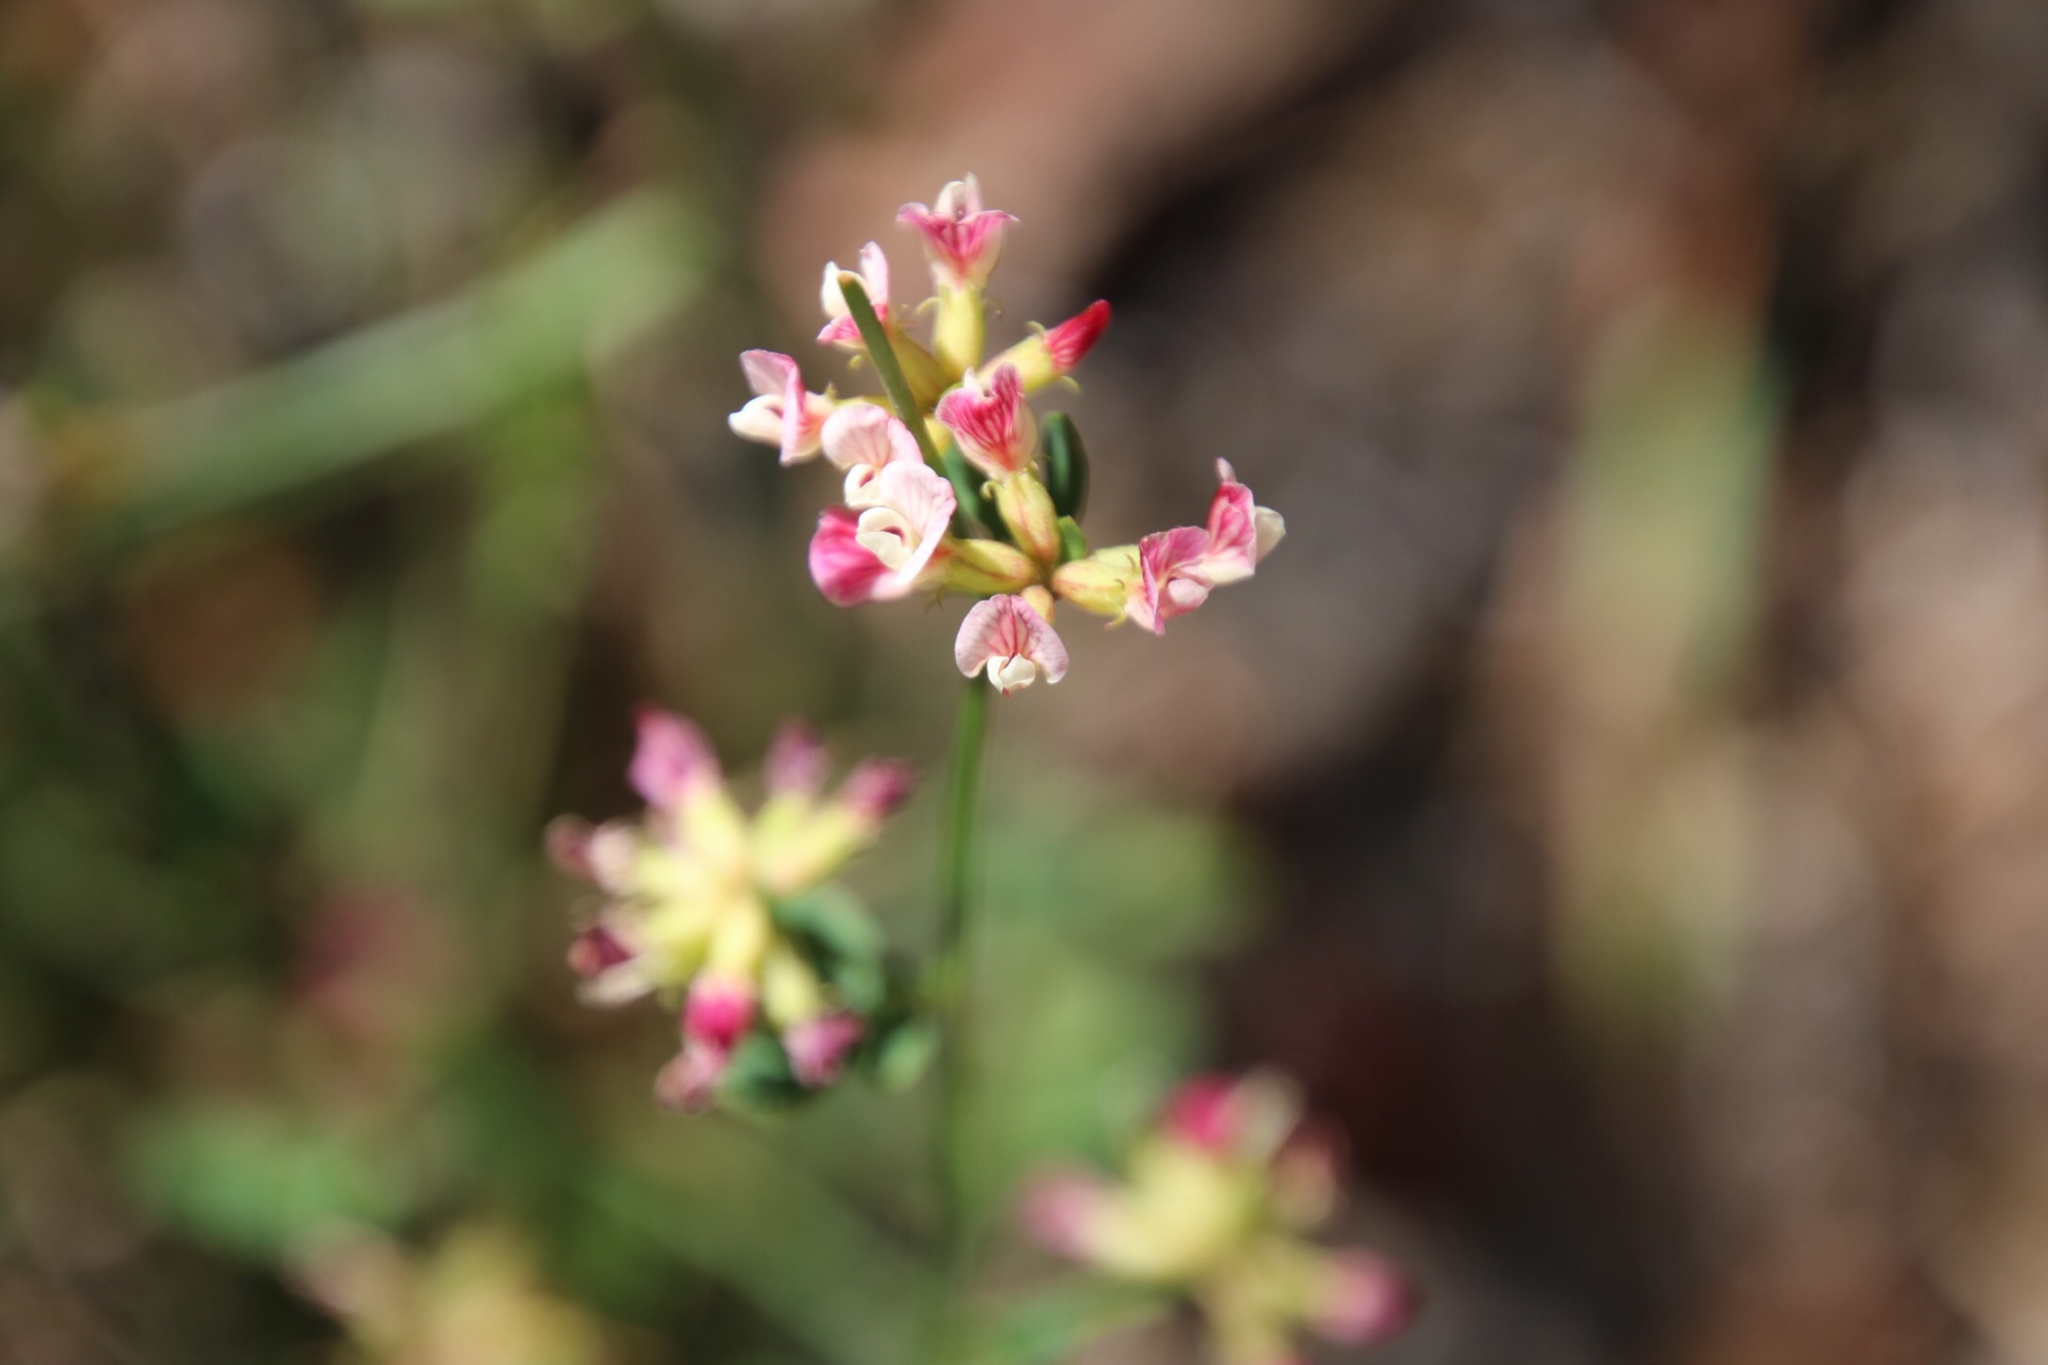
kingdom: Plantae
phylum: Tracheophyta
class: Magnoliopsida
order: Fabales
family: Fabaceae
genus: Acmispon
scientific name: Acmispon cytisoides
